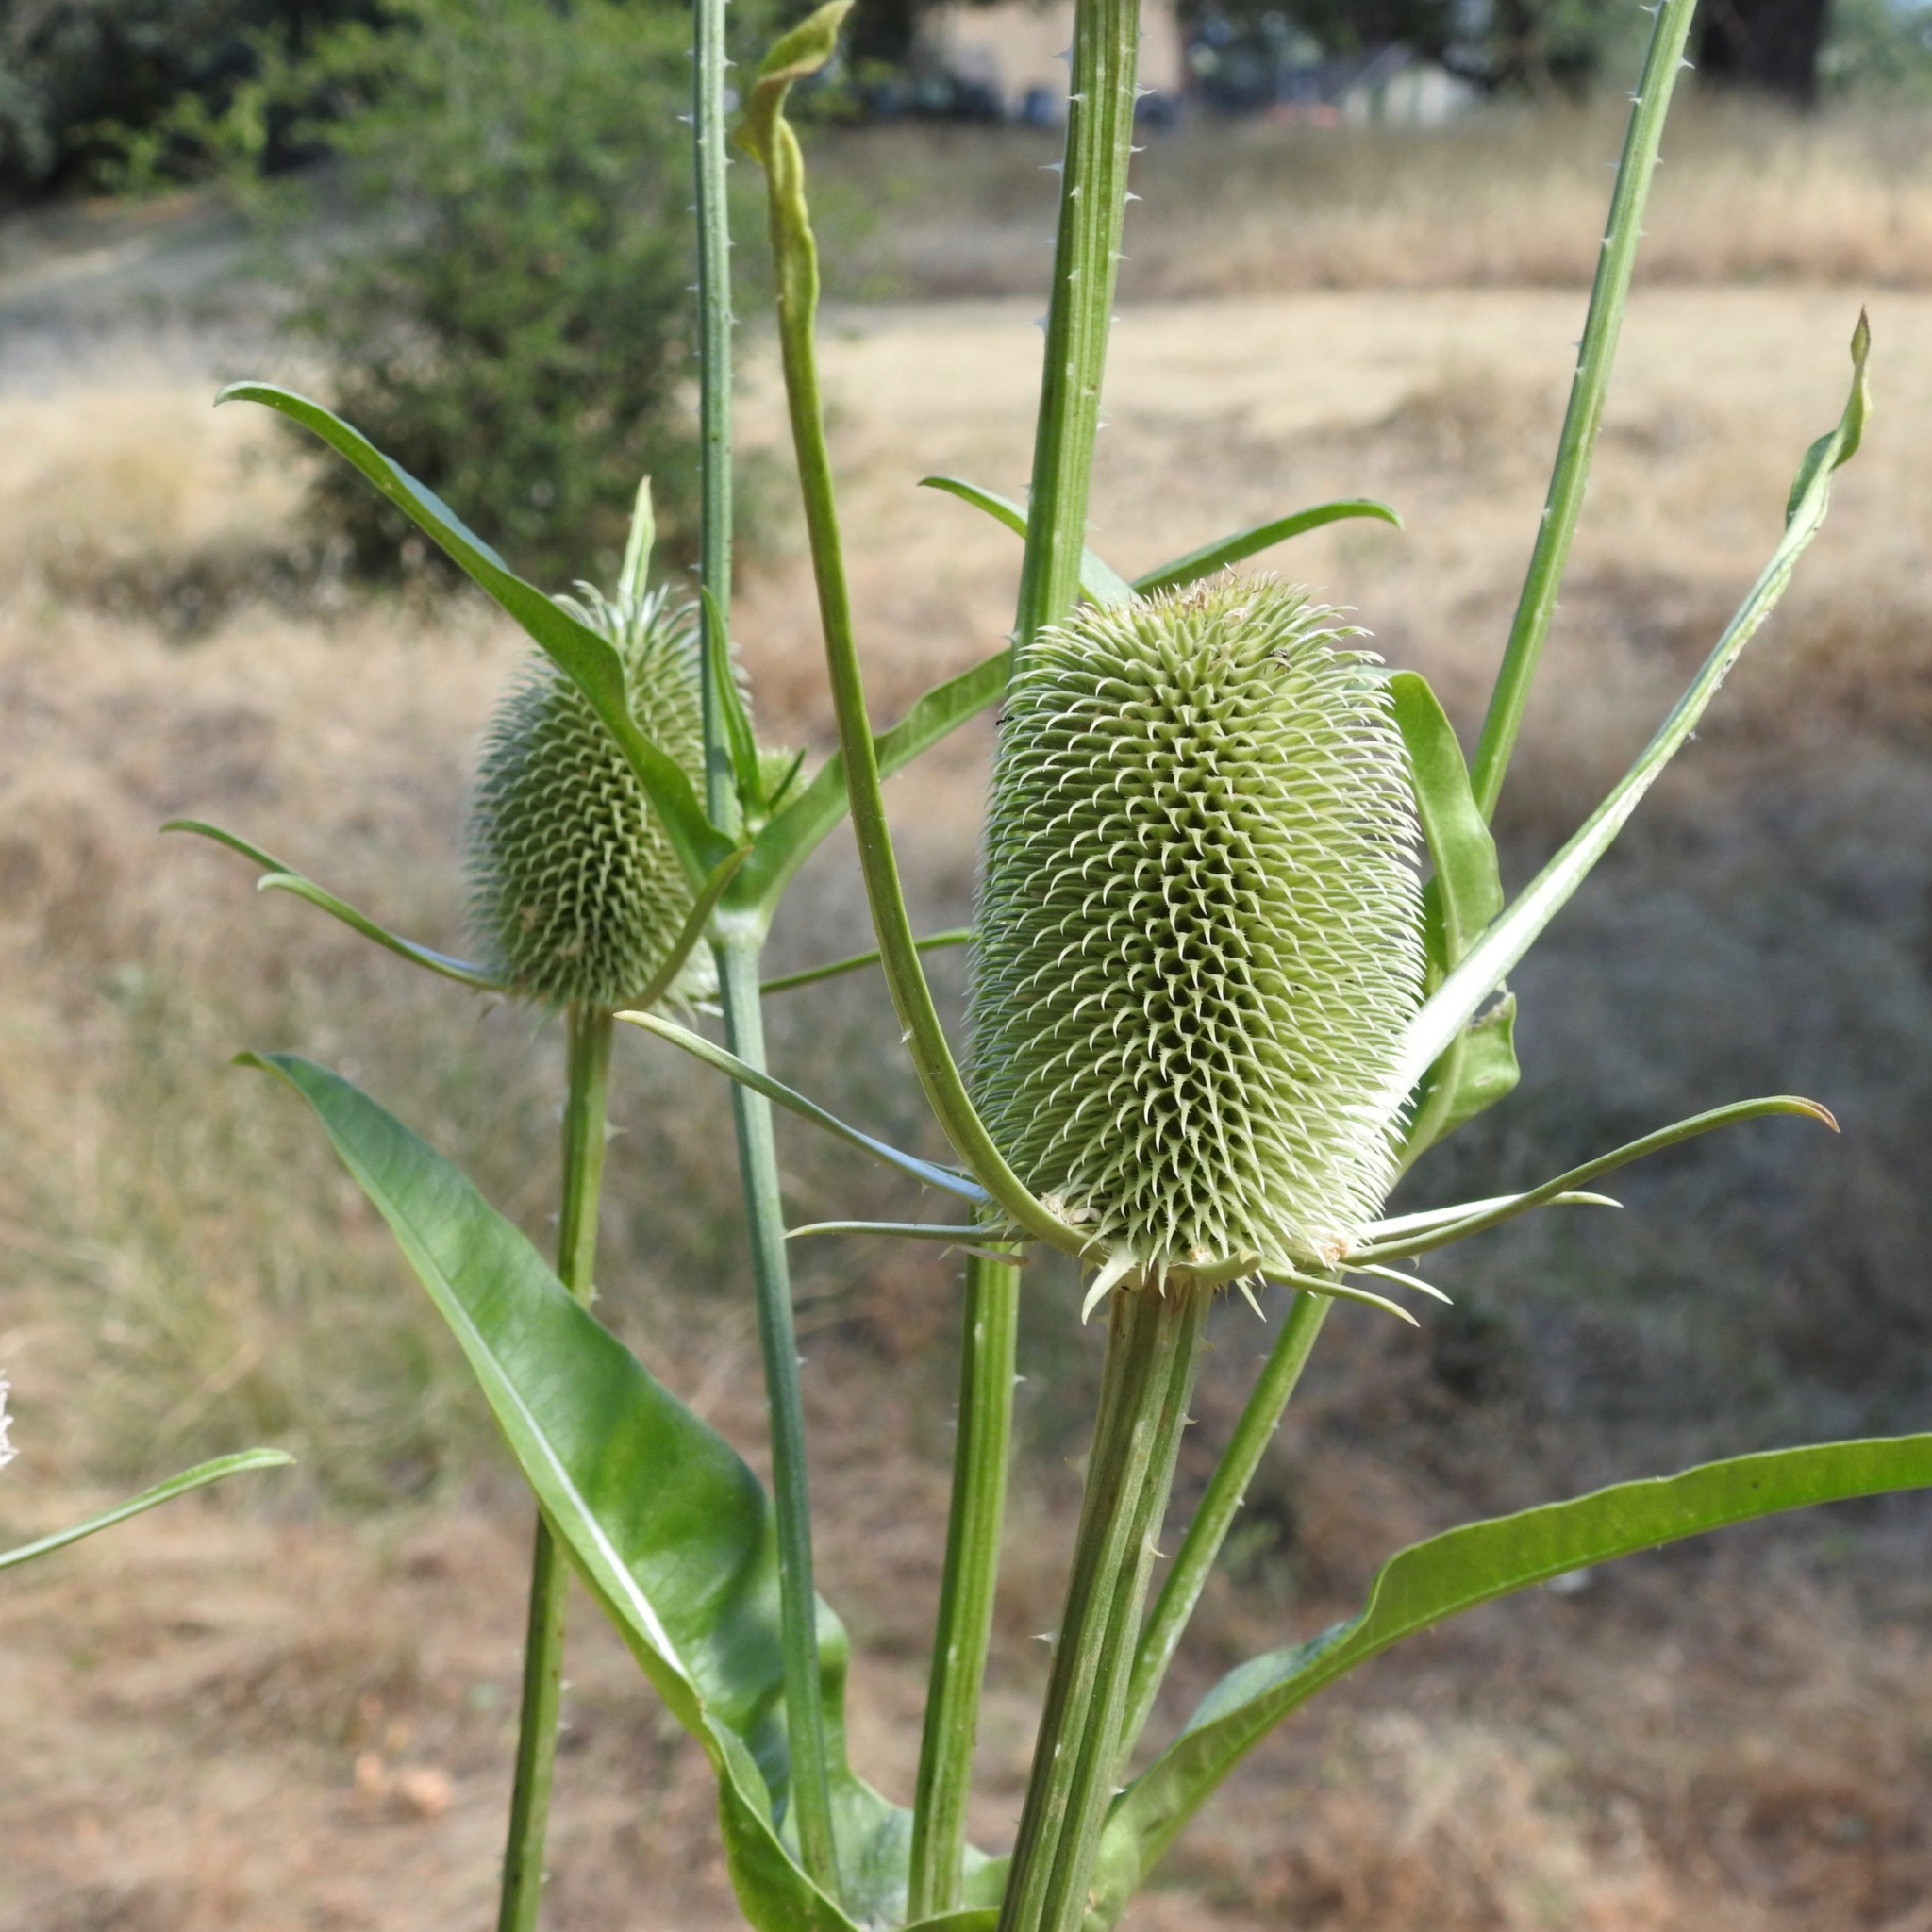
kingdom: Plantae
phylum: Tracheophyta
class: Magnoliopsida
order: Dipsacales
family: Caprifoliaceae
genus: Dipsacus
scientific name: Dipsacus sativus
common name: Fuller's teasel
